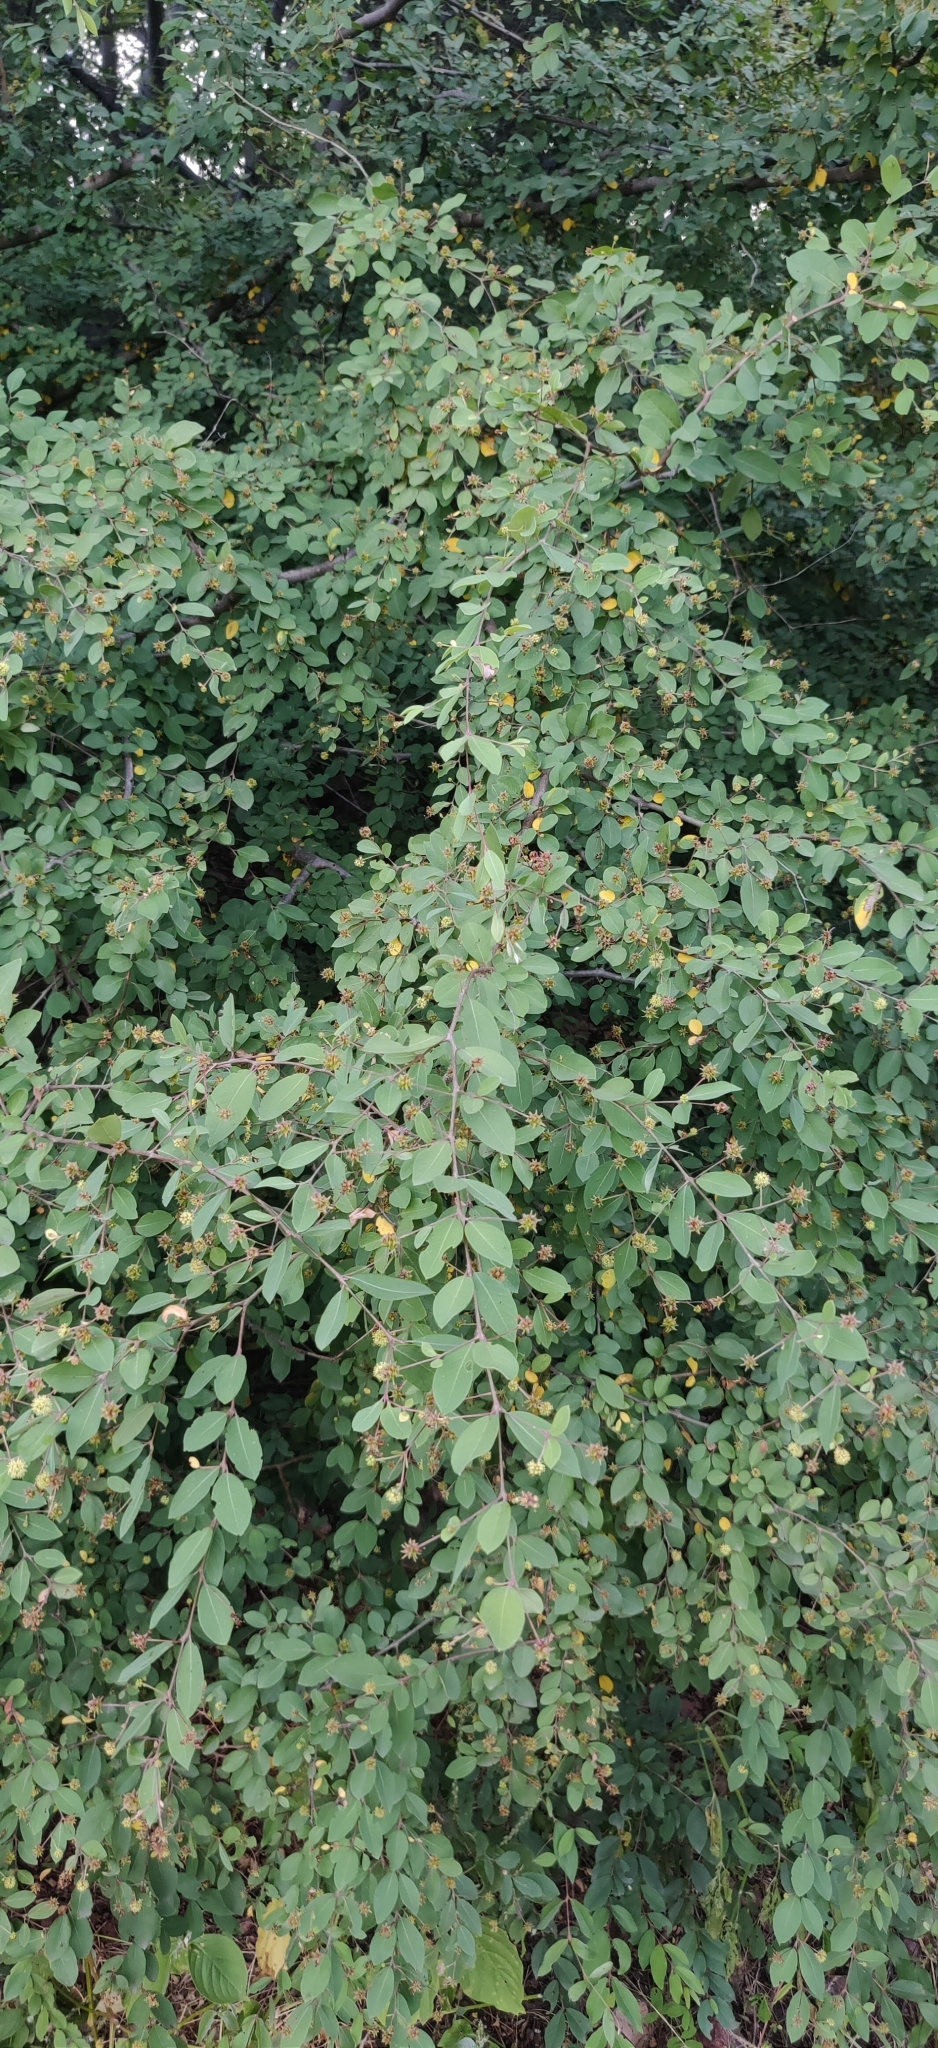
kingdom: Plantae
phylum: Tracheophyta
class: Magnoliopsida
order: Myrtales
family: Combretaceae
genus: Terminalia
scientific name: Terminalia pendula
